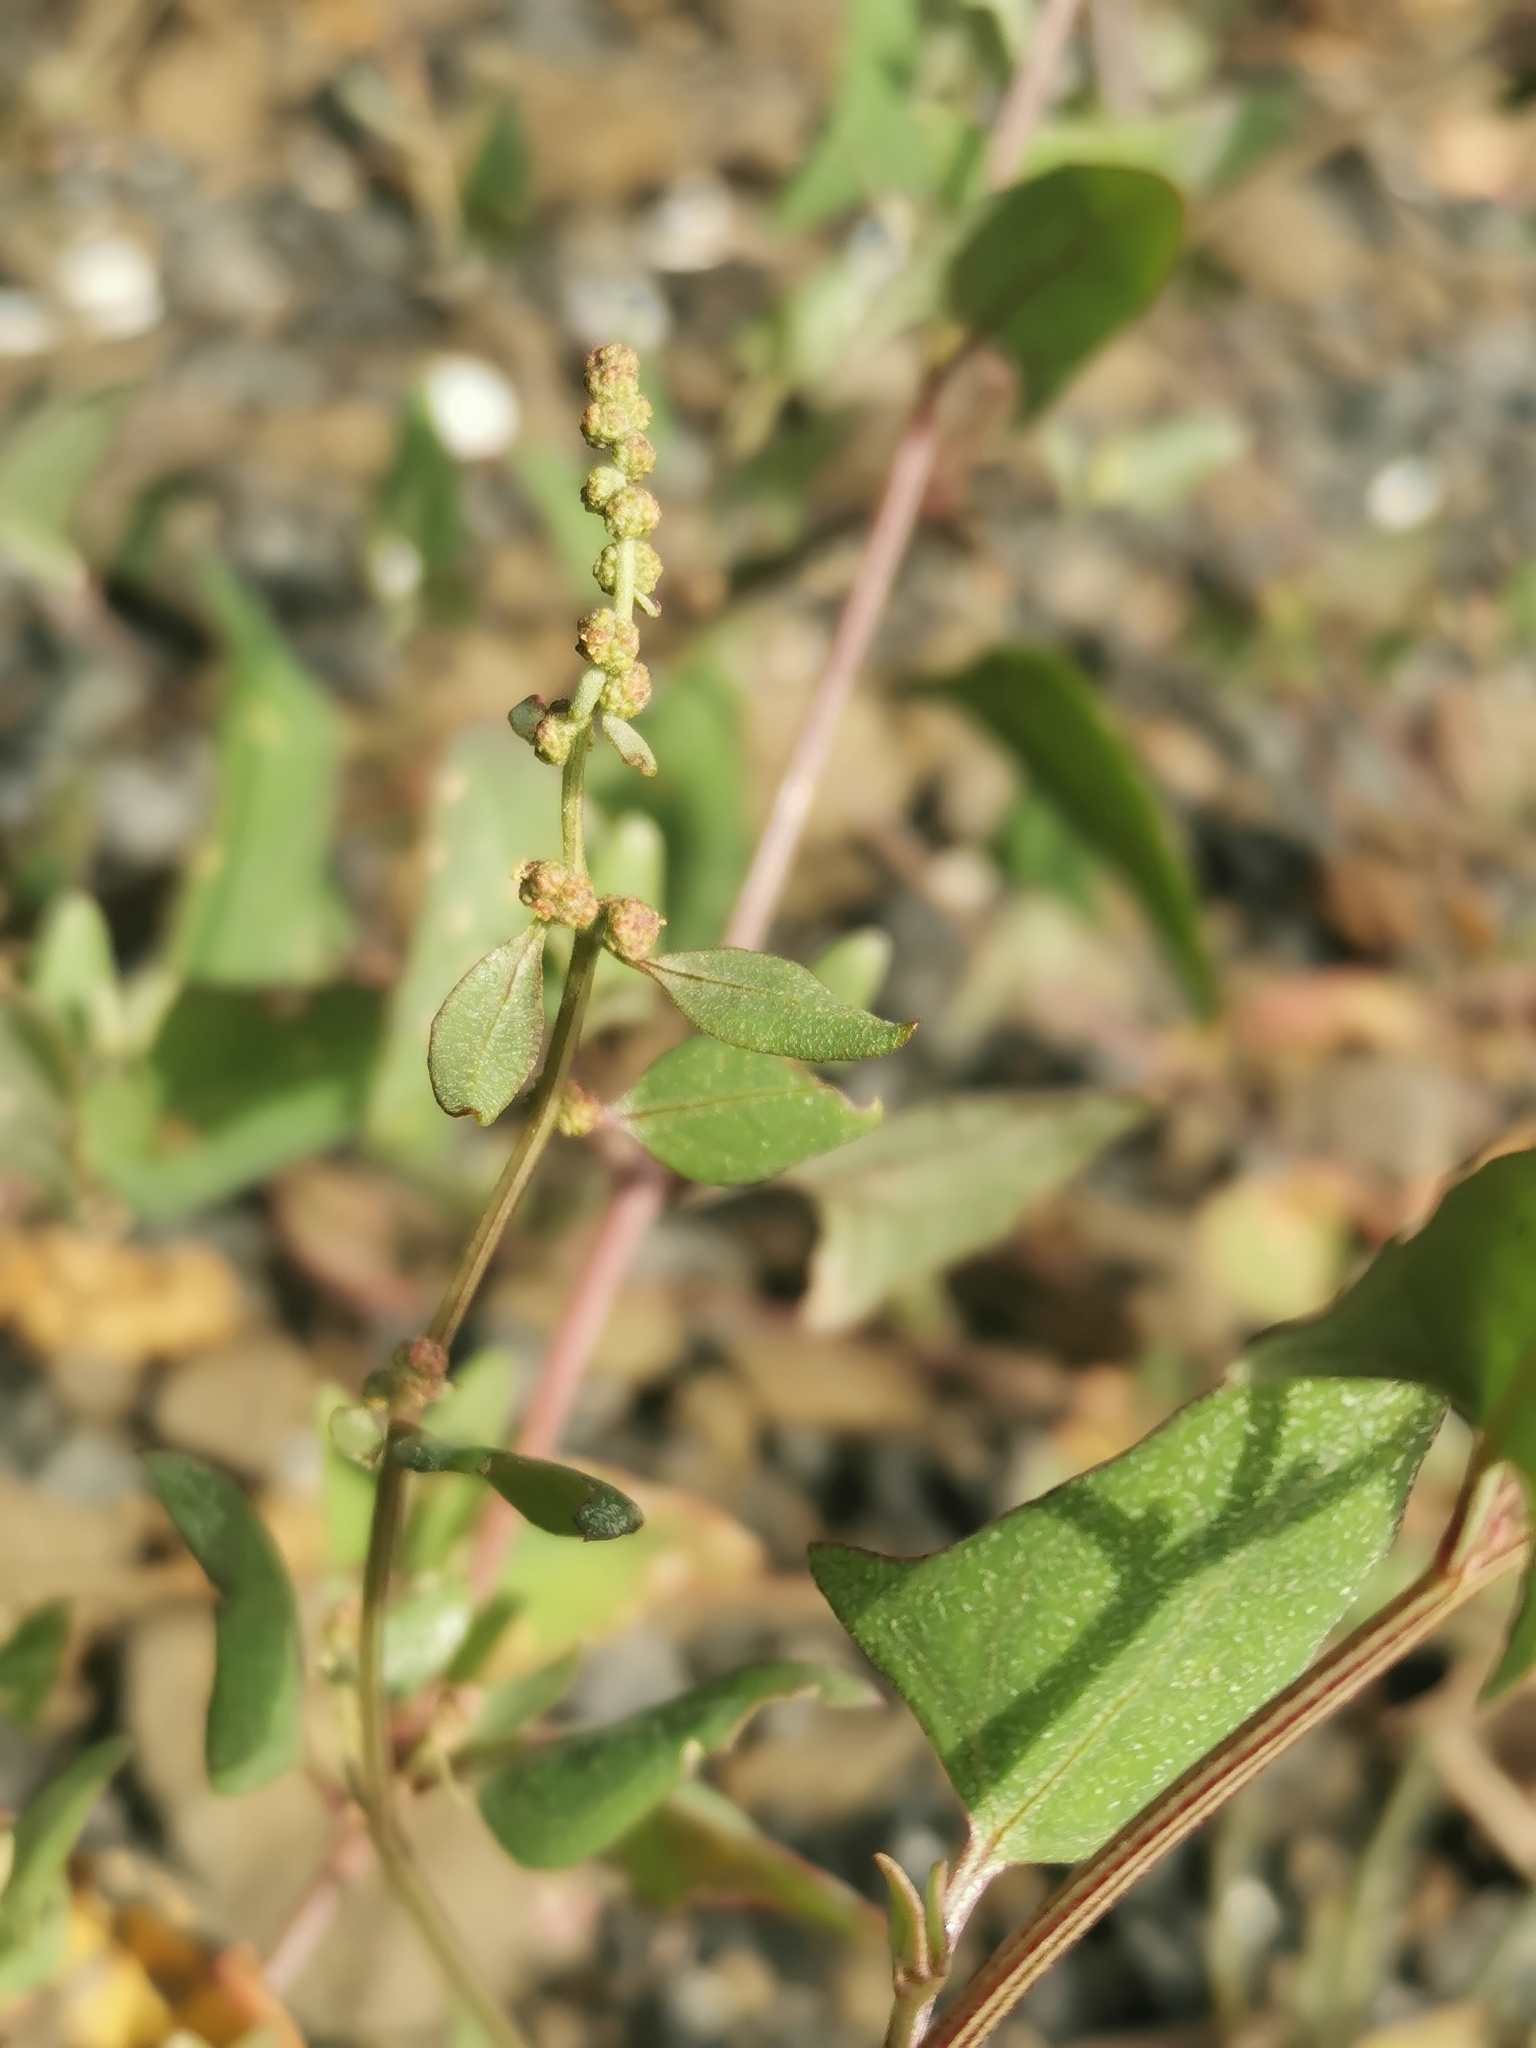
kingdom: Plantae
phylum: Tracheophyta
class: Magnoliopsida
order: Caryophyllales
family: Amaranthaceae
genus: Atriplex
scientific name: Atriplex prostrata
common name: Spear-leaved orache
